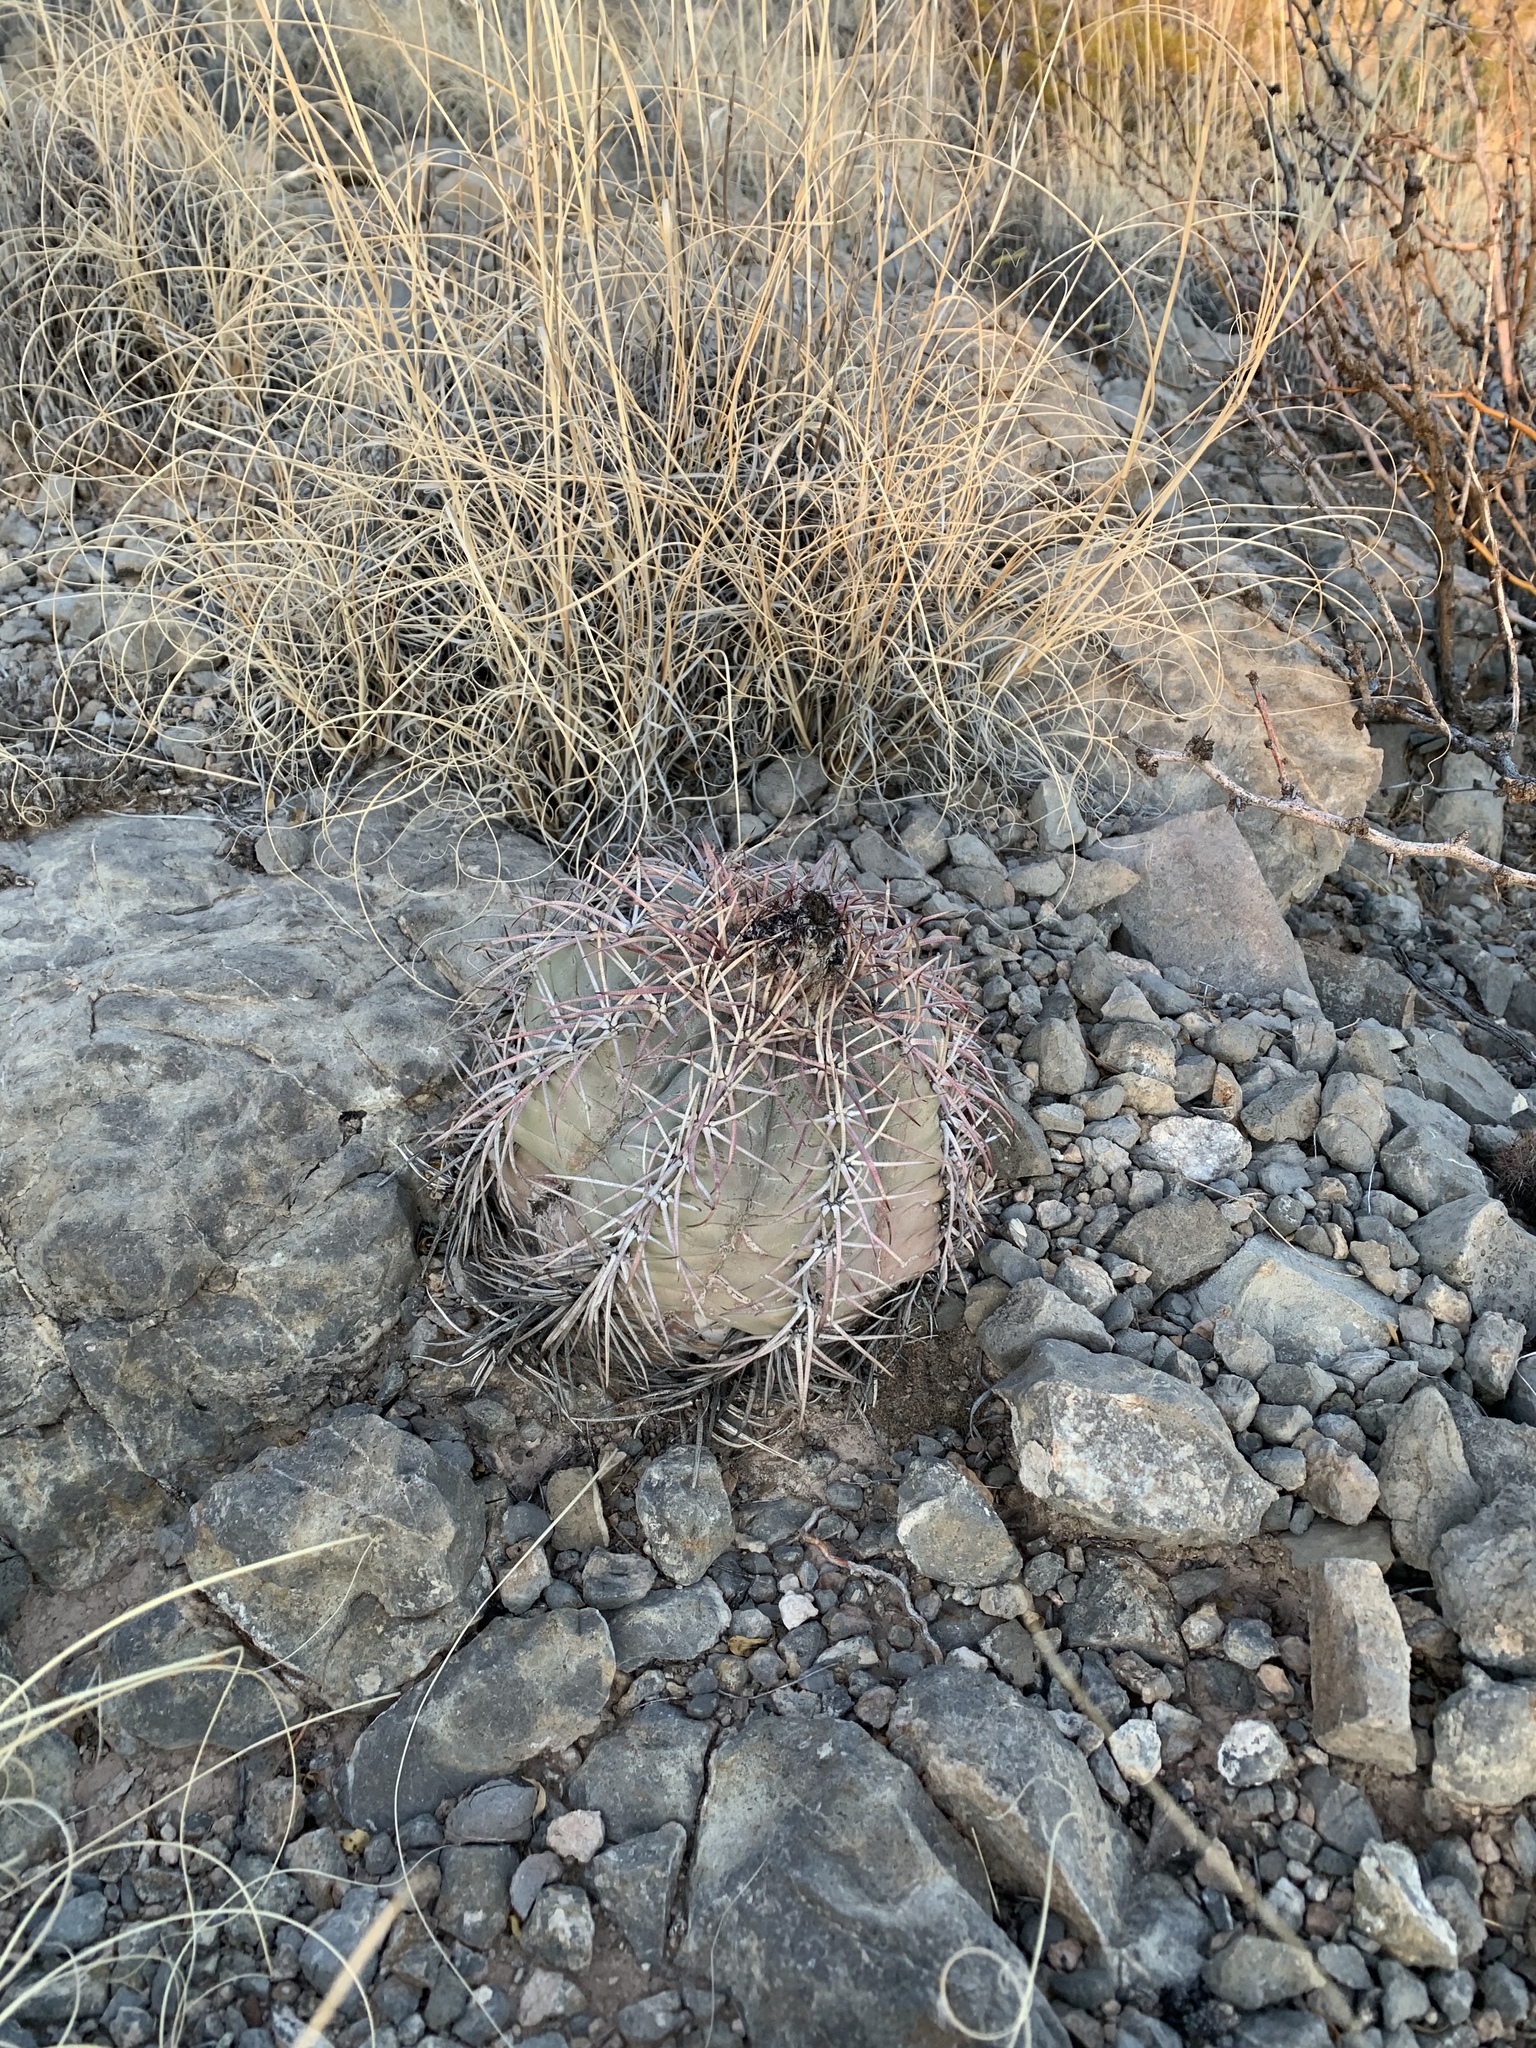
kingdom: Plantae
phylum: Tracheophyta
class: Magnoliopsida
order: Caryophyllales
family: Cactaceae
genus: Echinocactus
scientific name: Echinocactus horizonthalonius
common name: Devilshead
